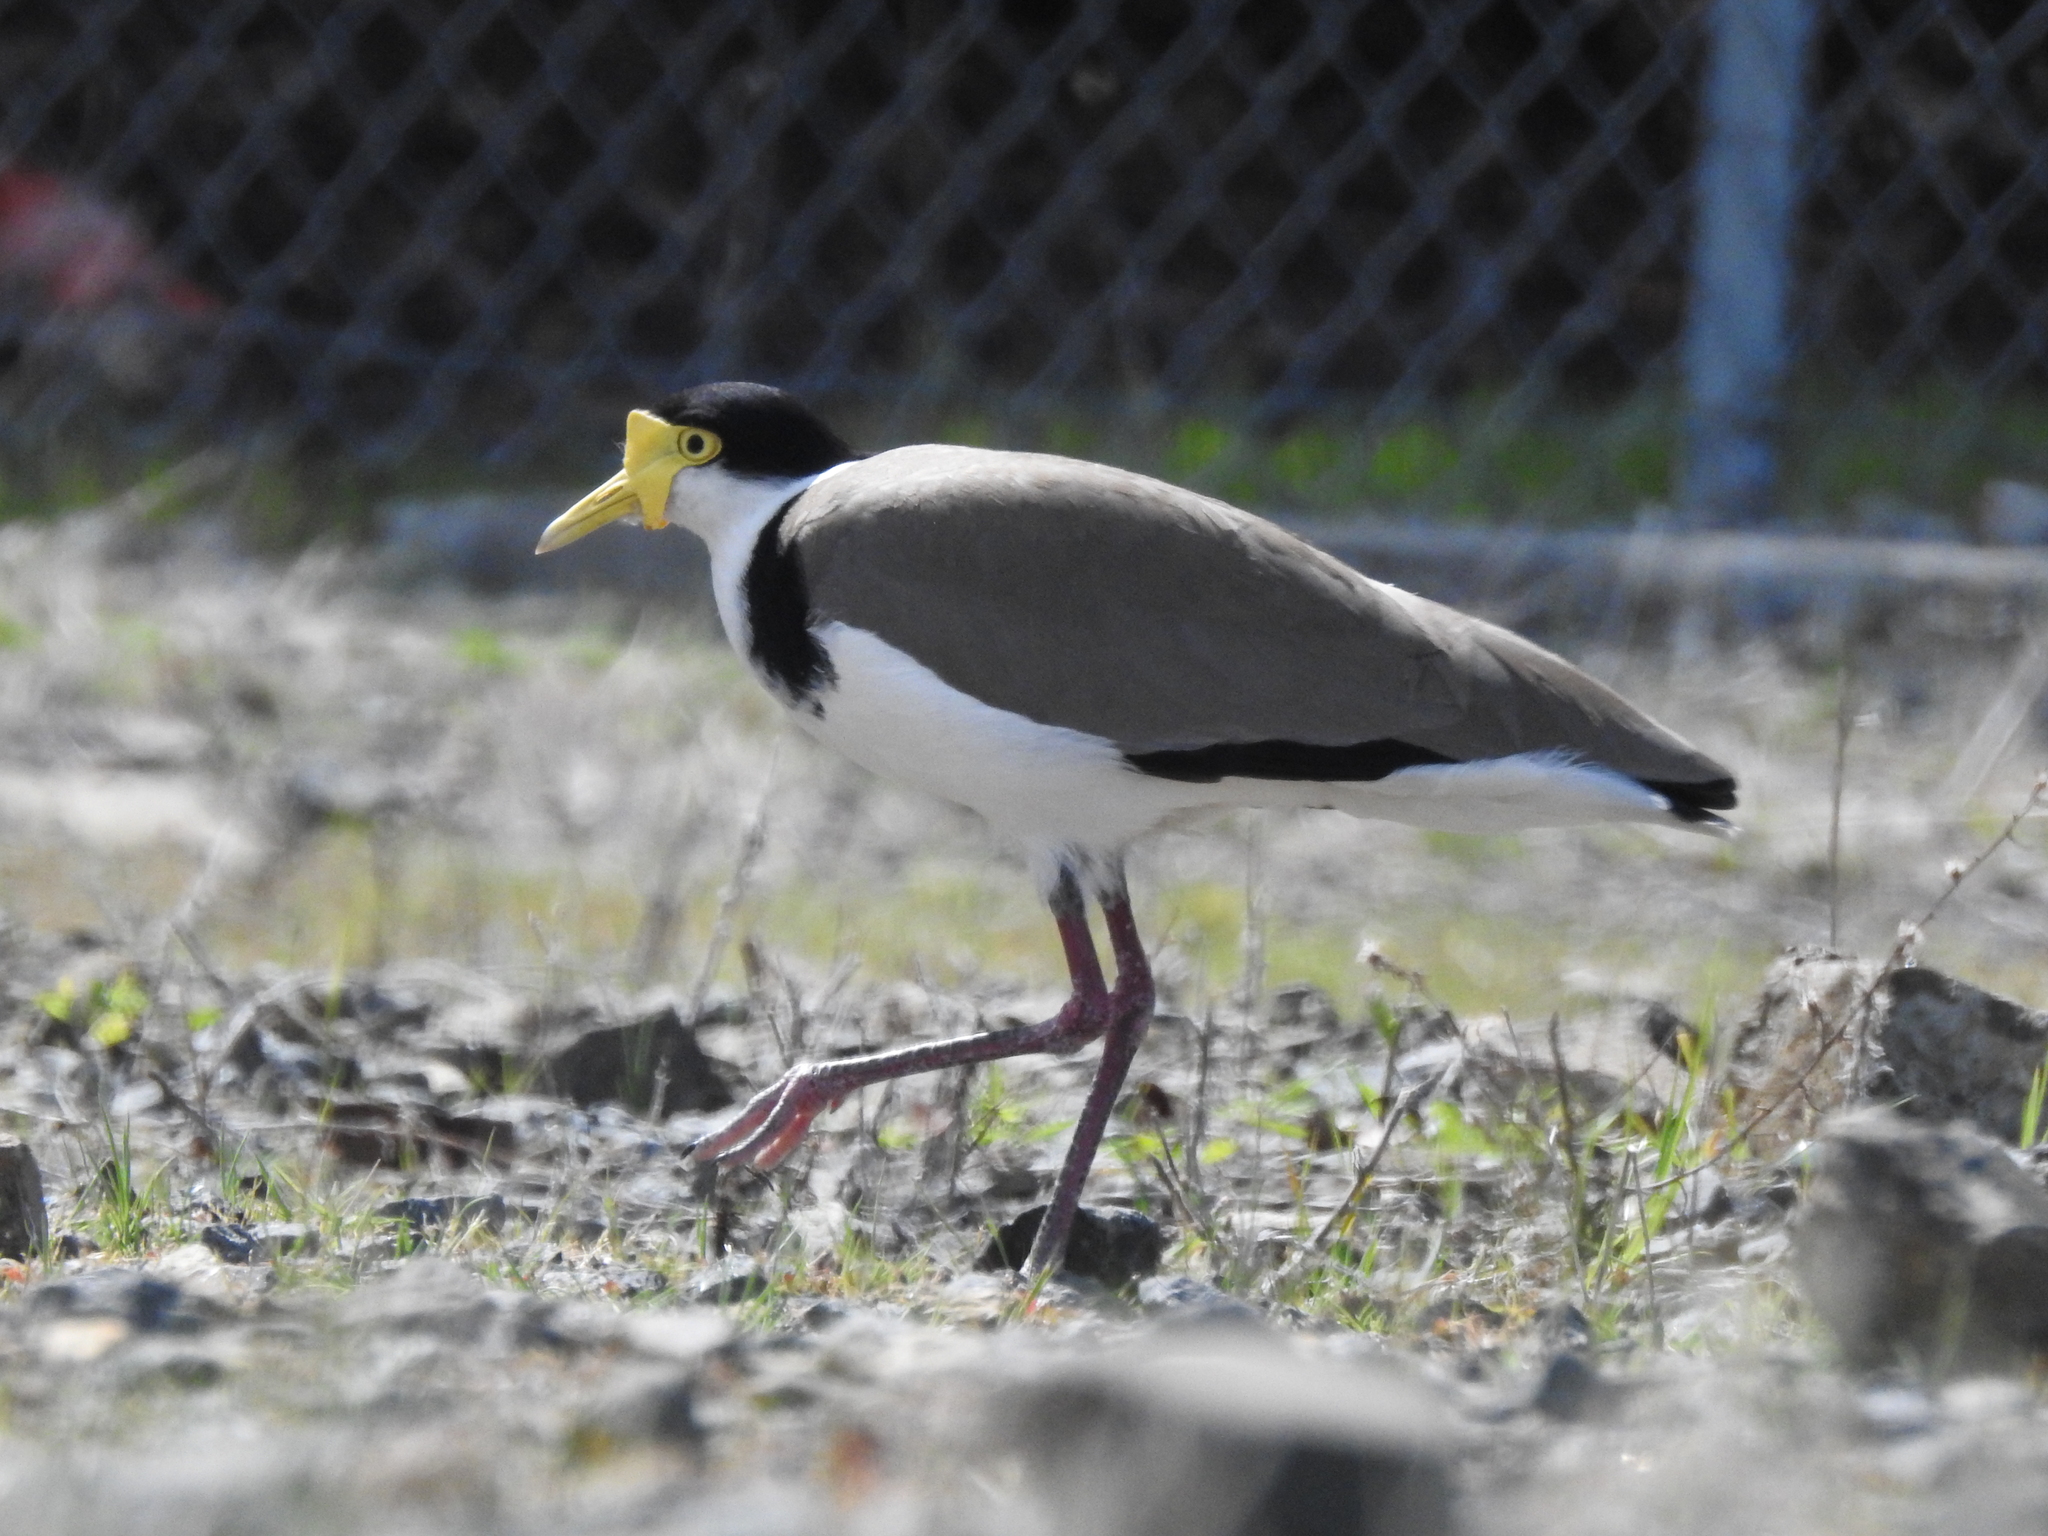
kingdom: Animalia
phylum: Chordata
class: Aves
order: Charadriiformes
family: Charadriidae
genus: Vanellus
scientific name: Vanellus miles
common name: Masked lapwing
